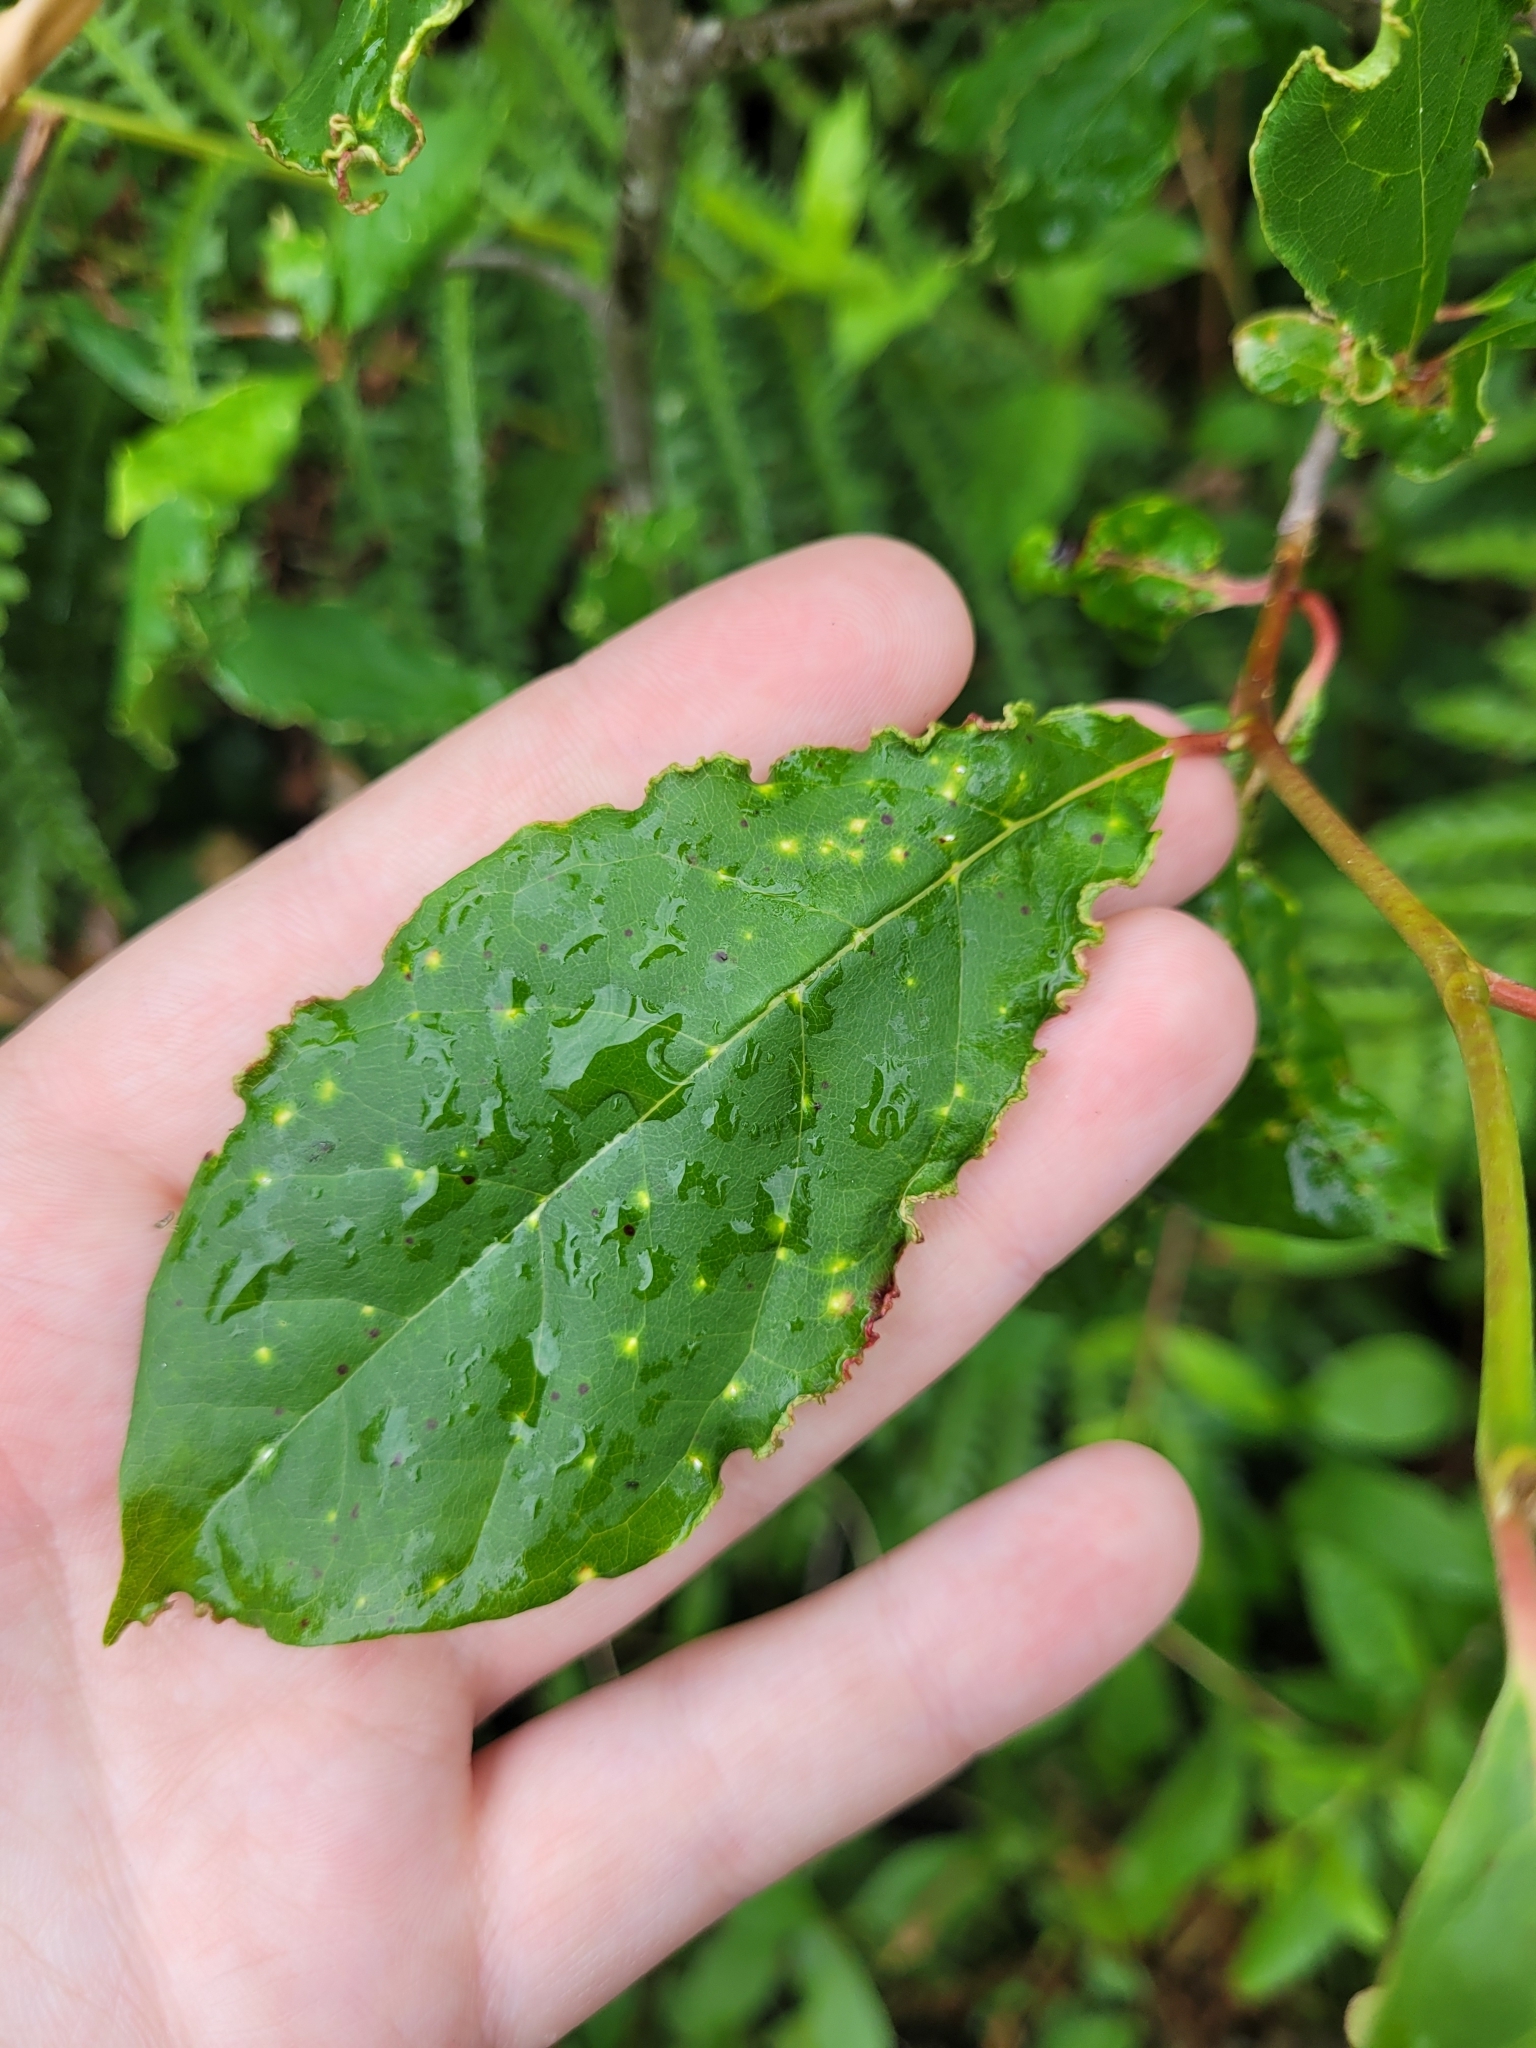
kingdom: Animalia
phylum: Arthropoda
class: Arachnida
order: Trombidiformes
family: Eriophyidae
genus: Aceria
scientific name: Aceria
